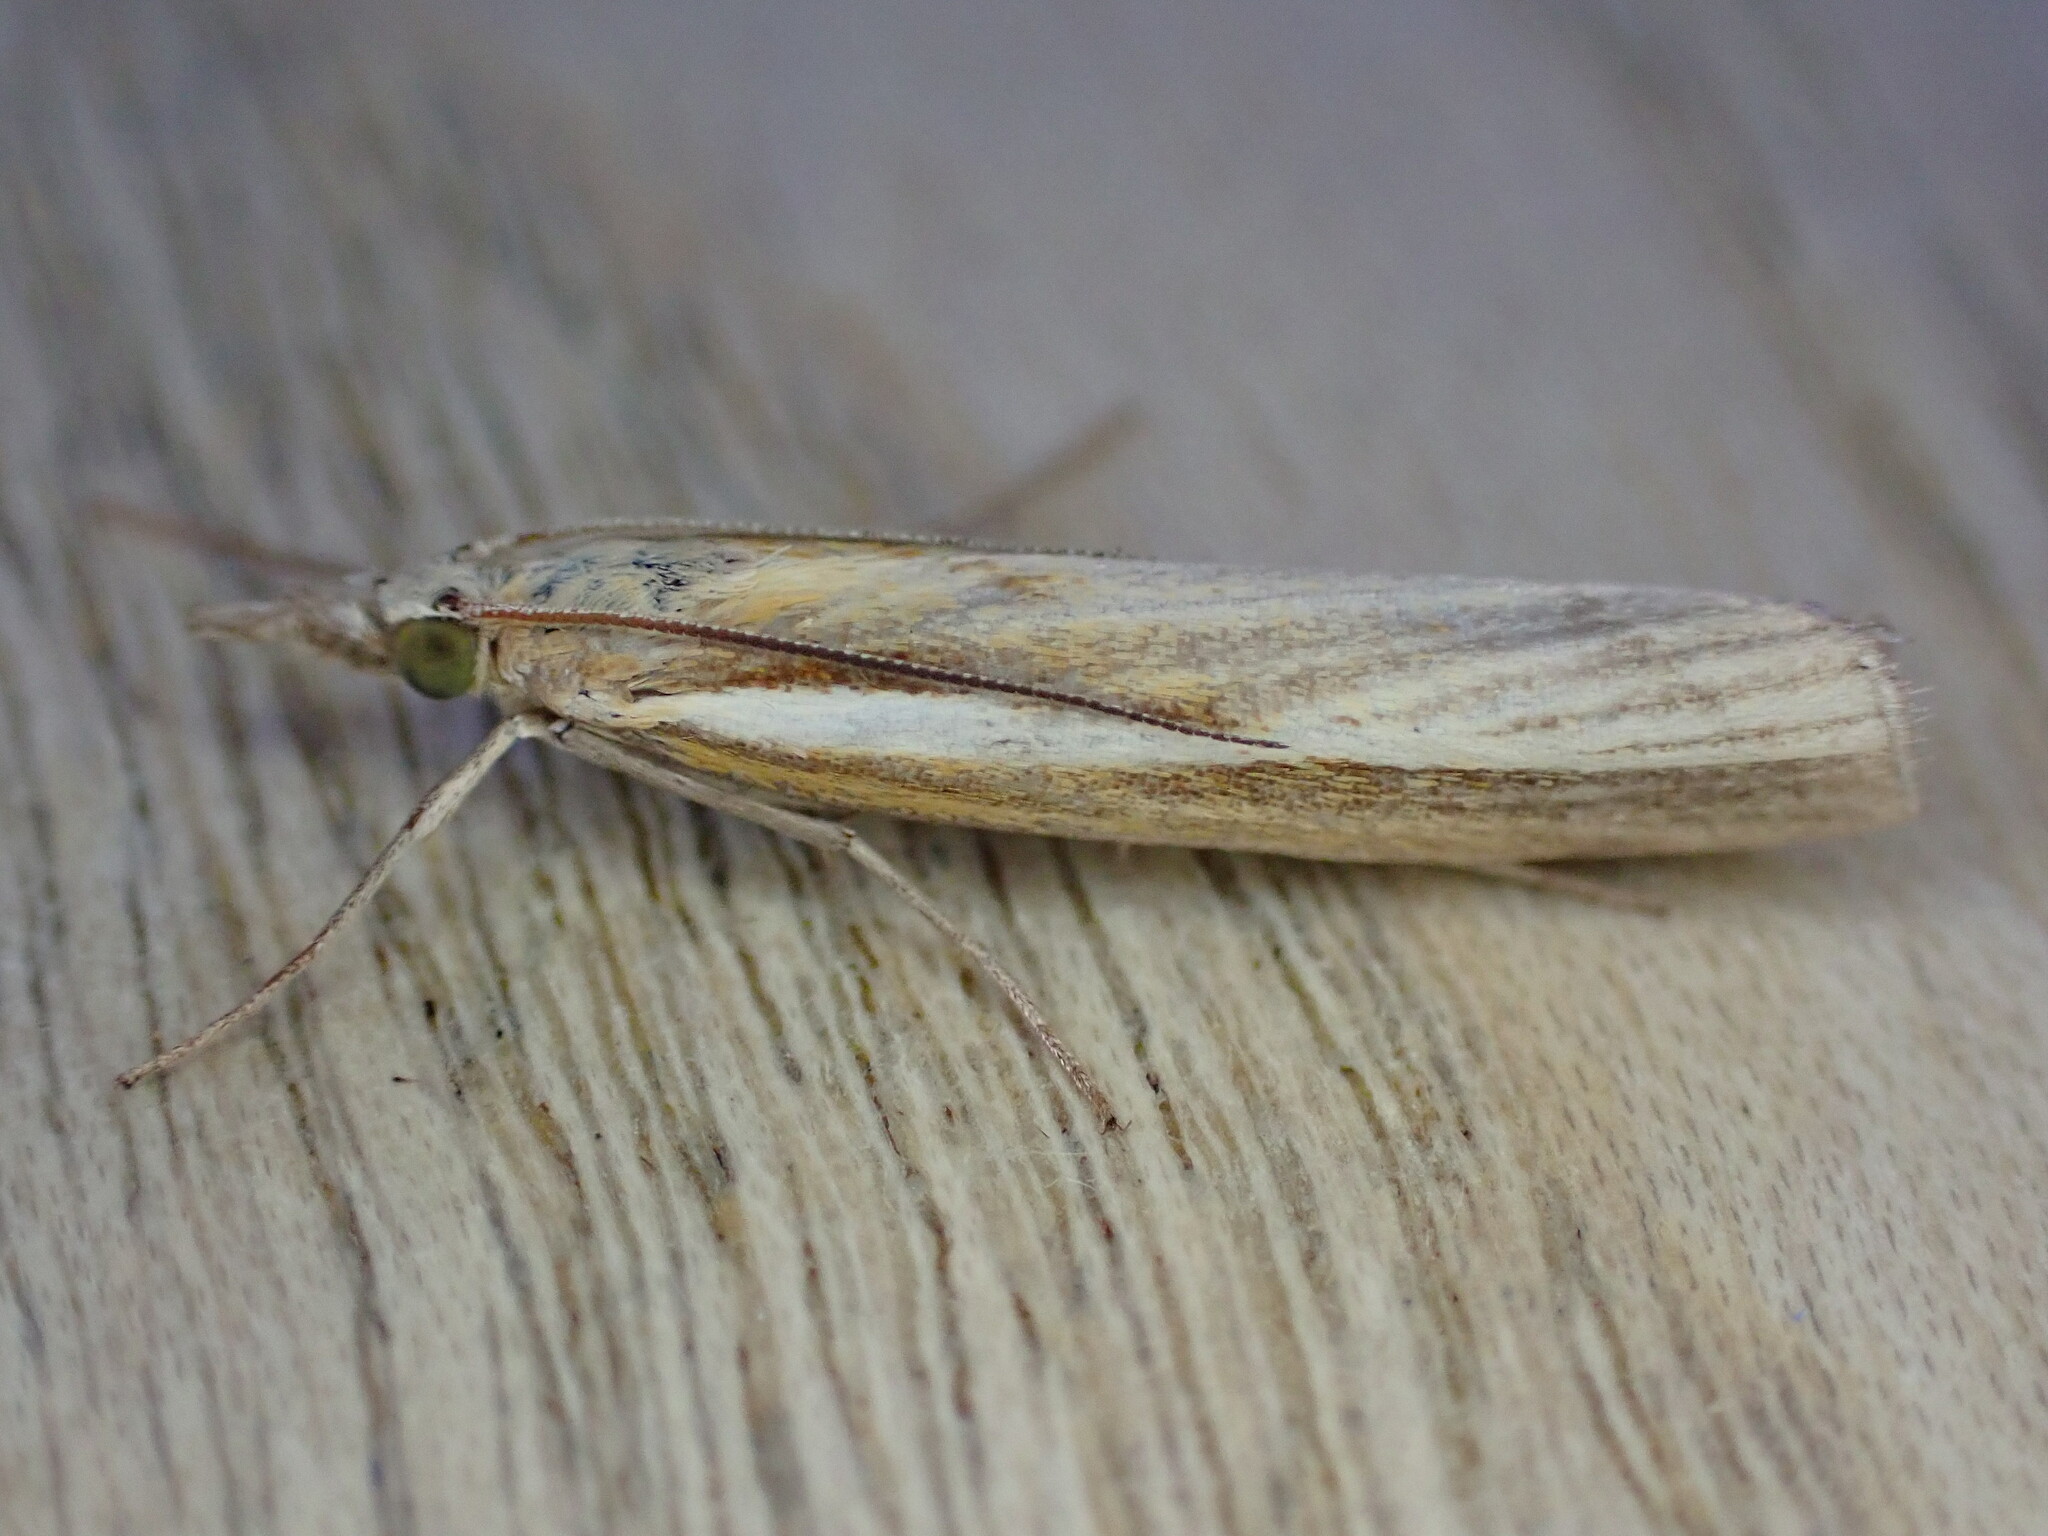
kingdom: Animalia
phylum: Arthropoda
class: Insecta
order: Lepidoptera
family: Crambidae
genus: Agriphila
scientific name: Agriphila tristellus
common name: Common grass-veneer
